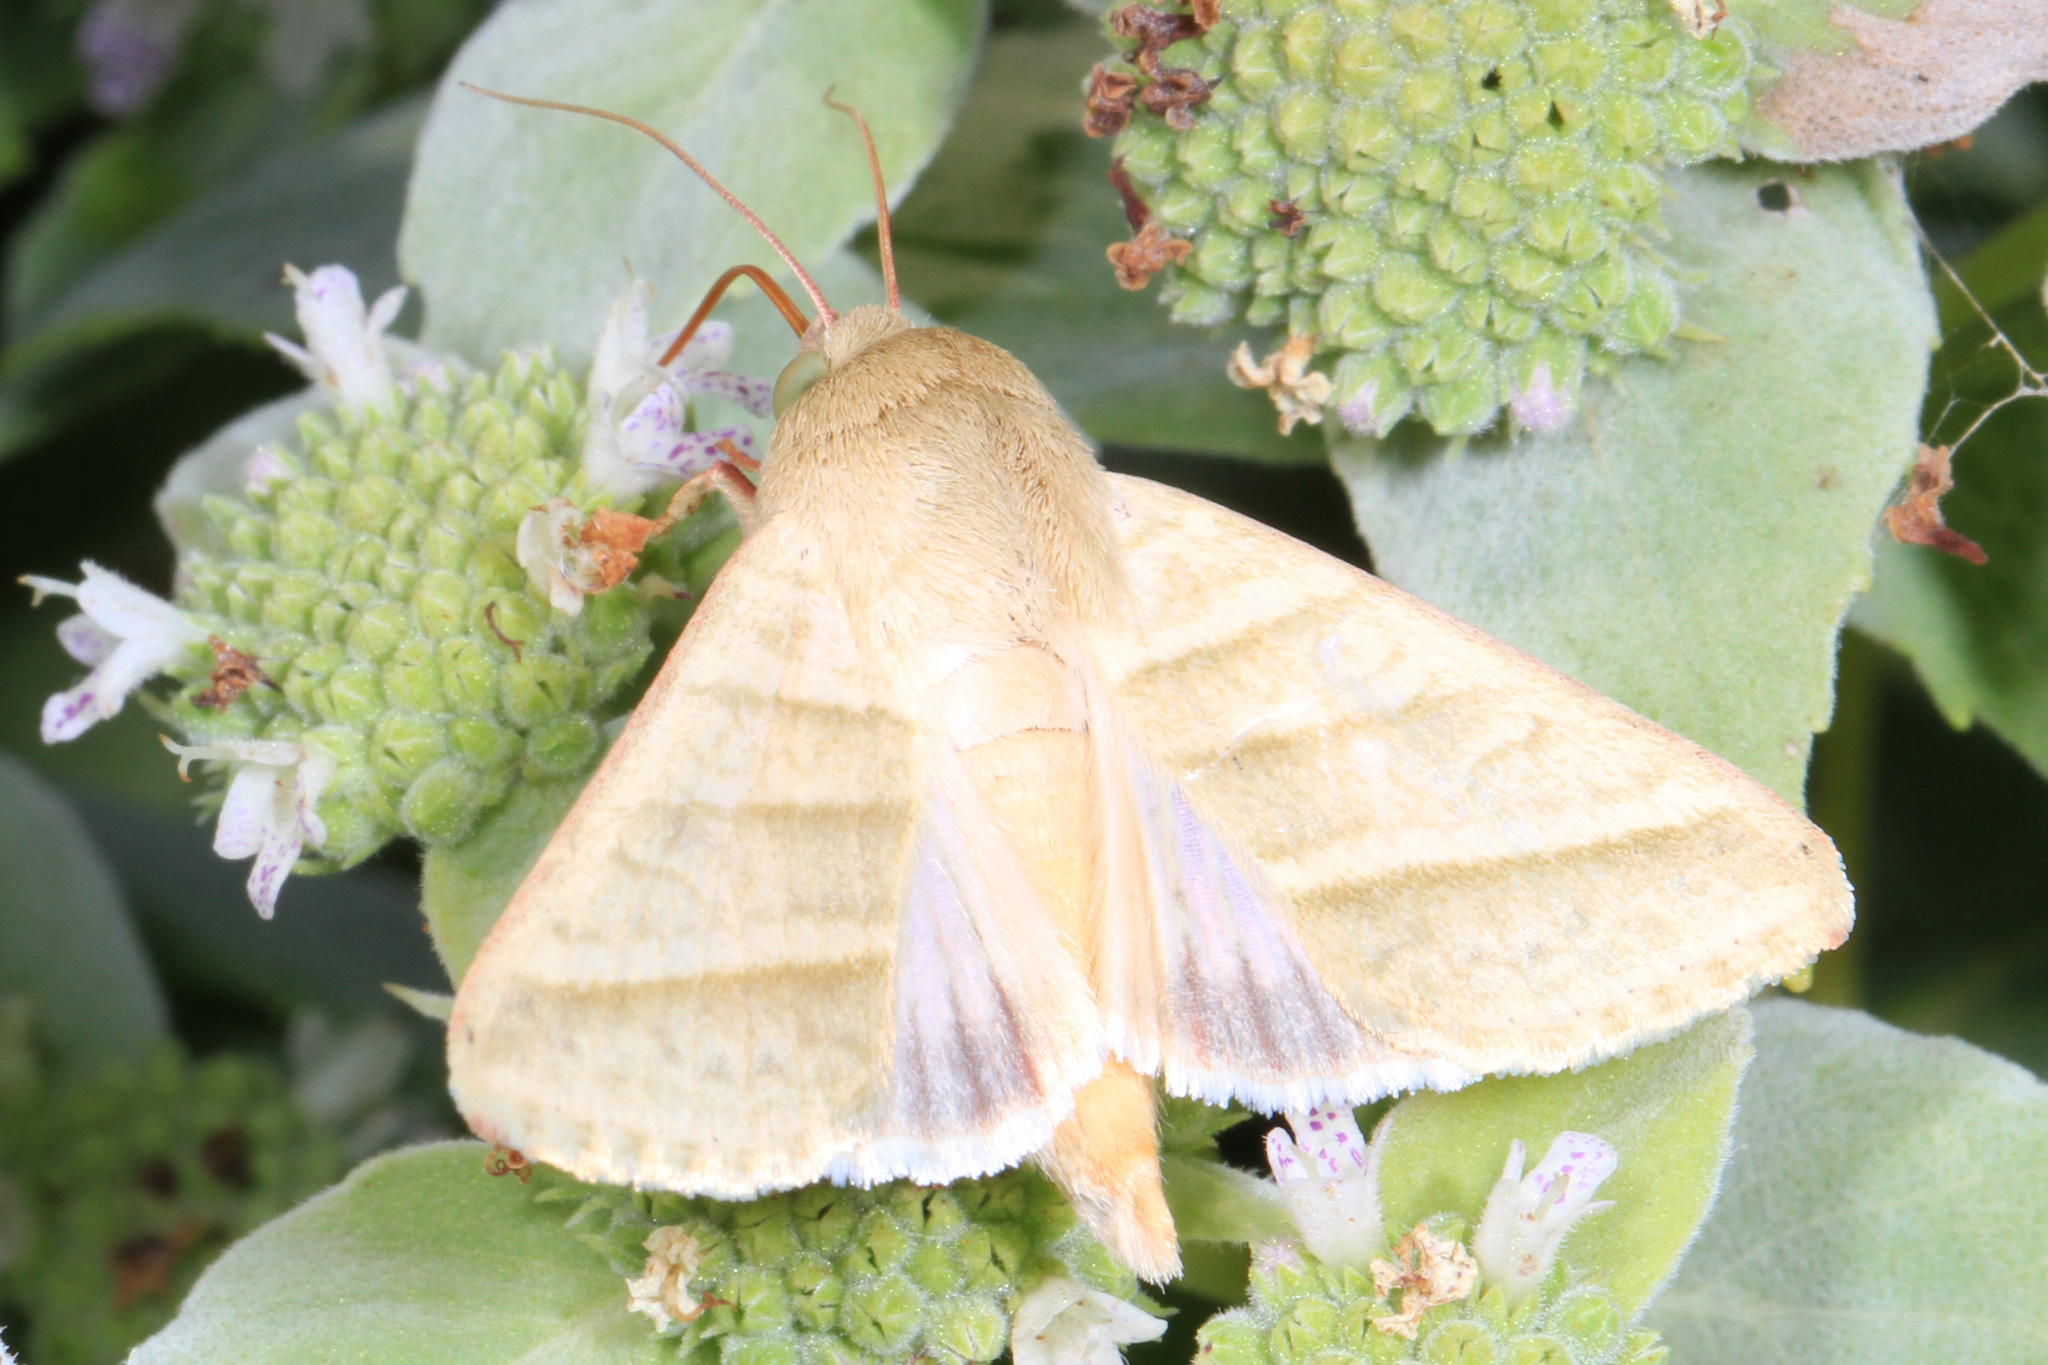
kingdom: Animalia
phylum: Arthropoda
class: Insecta
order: Lepidoptera
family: Noctuidae
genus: Chloridea
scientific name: Chloridea virescens
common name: Tobacco budworm
